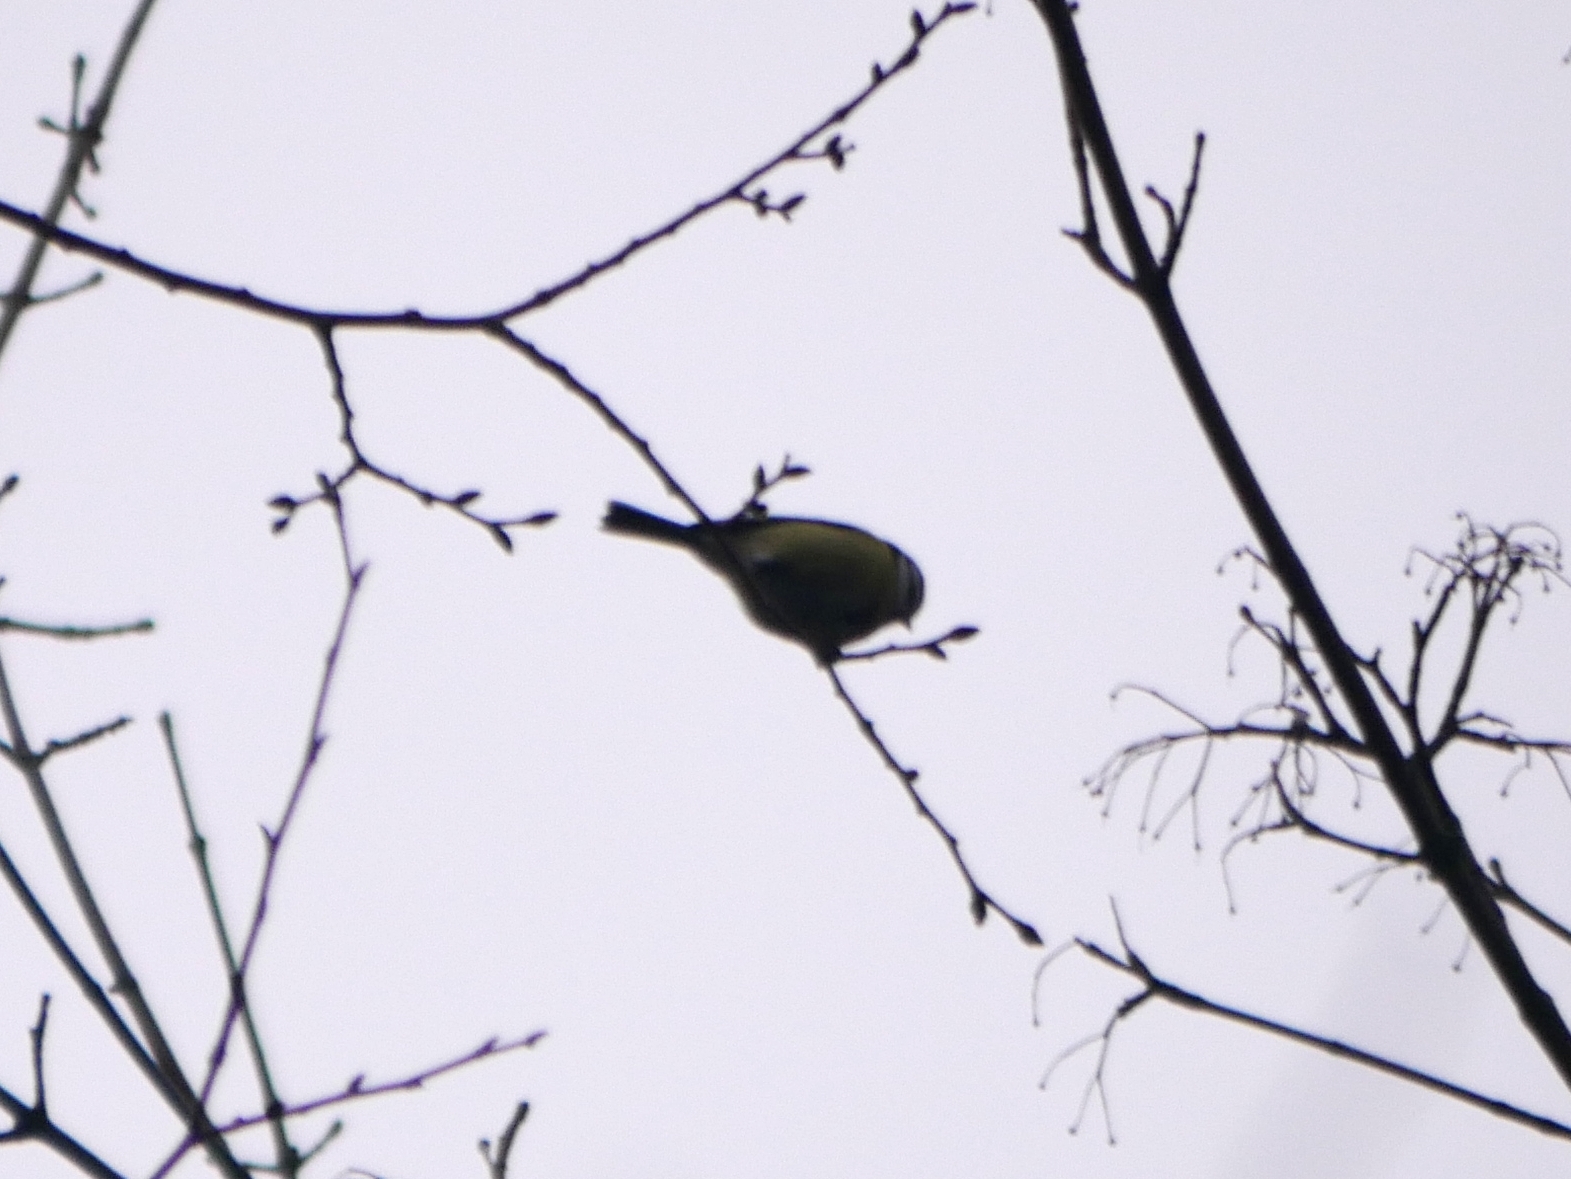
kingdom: Animalia
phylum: Chordata
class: Aves
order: Passeriformes
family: Paridae
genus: Cyanistes
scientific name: Cyanistes caeruleus
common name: Eurasian blue tit
